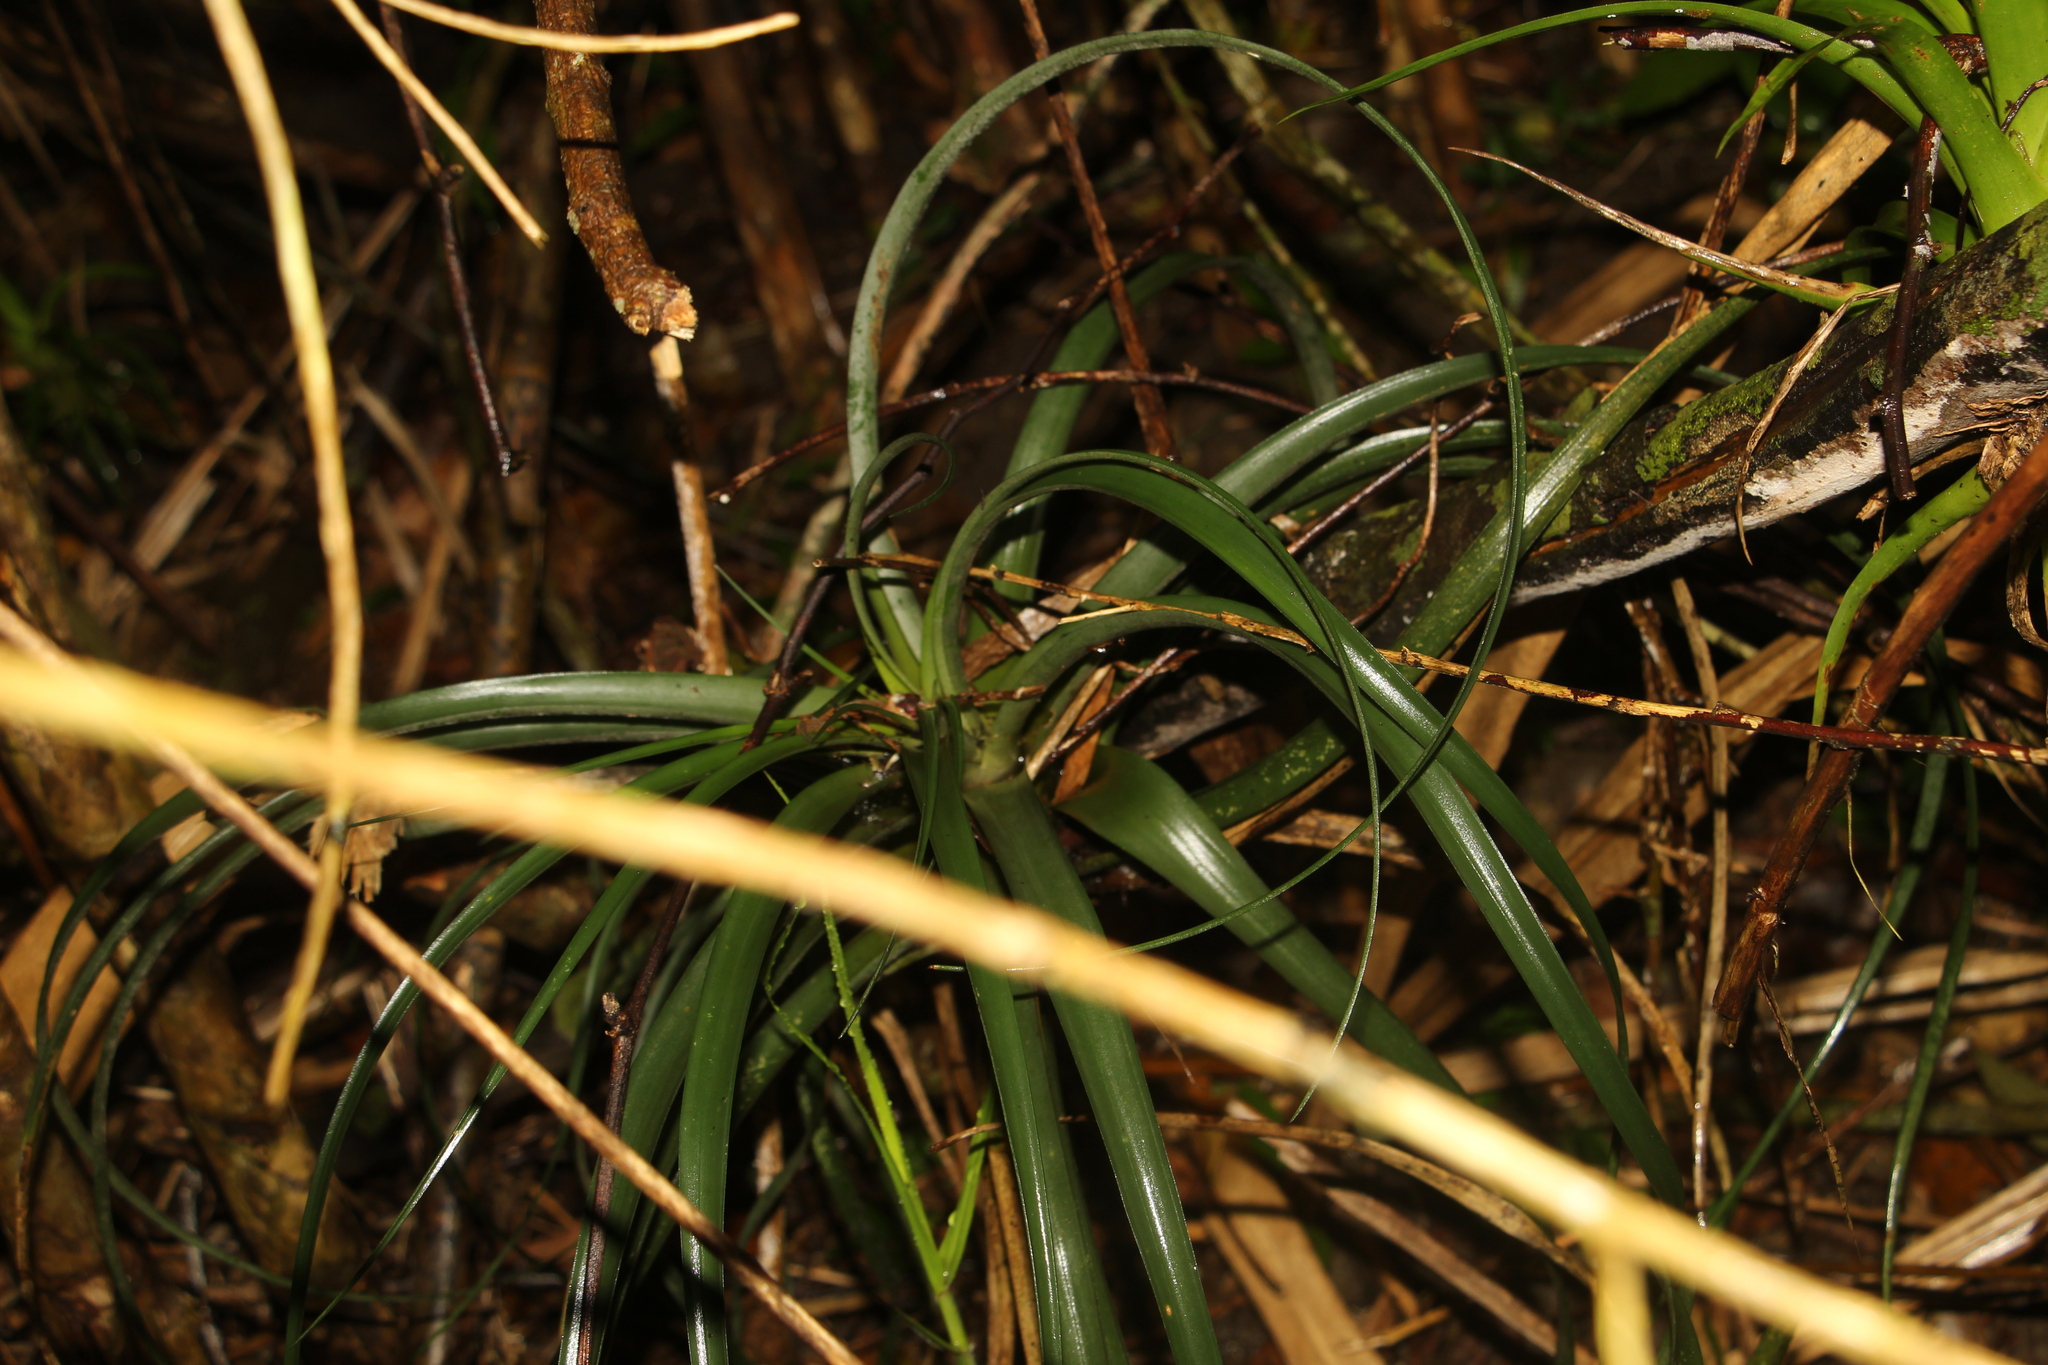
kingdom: Plantae
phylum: Tracheophyta
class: Liliopsida
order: Poales
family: Bromeliaceae
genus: Tillandsia
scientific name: Tillandsia variabilis
